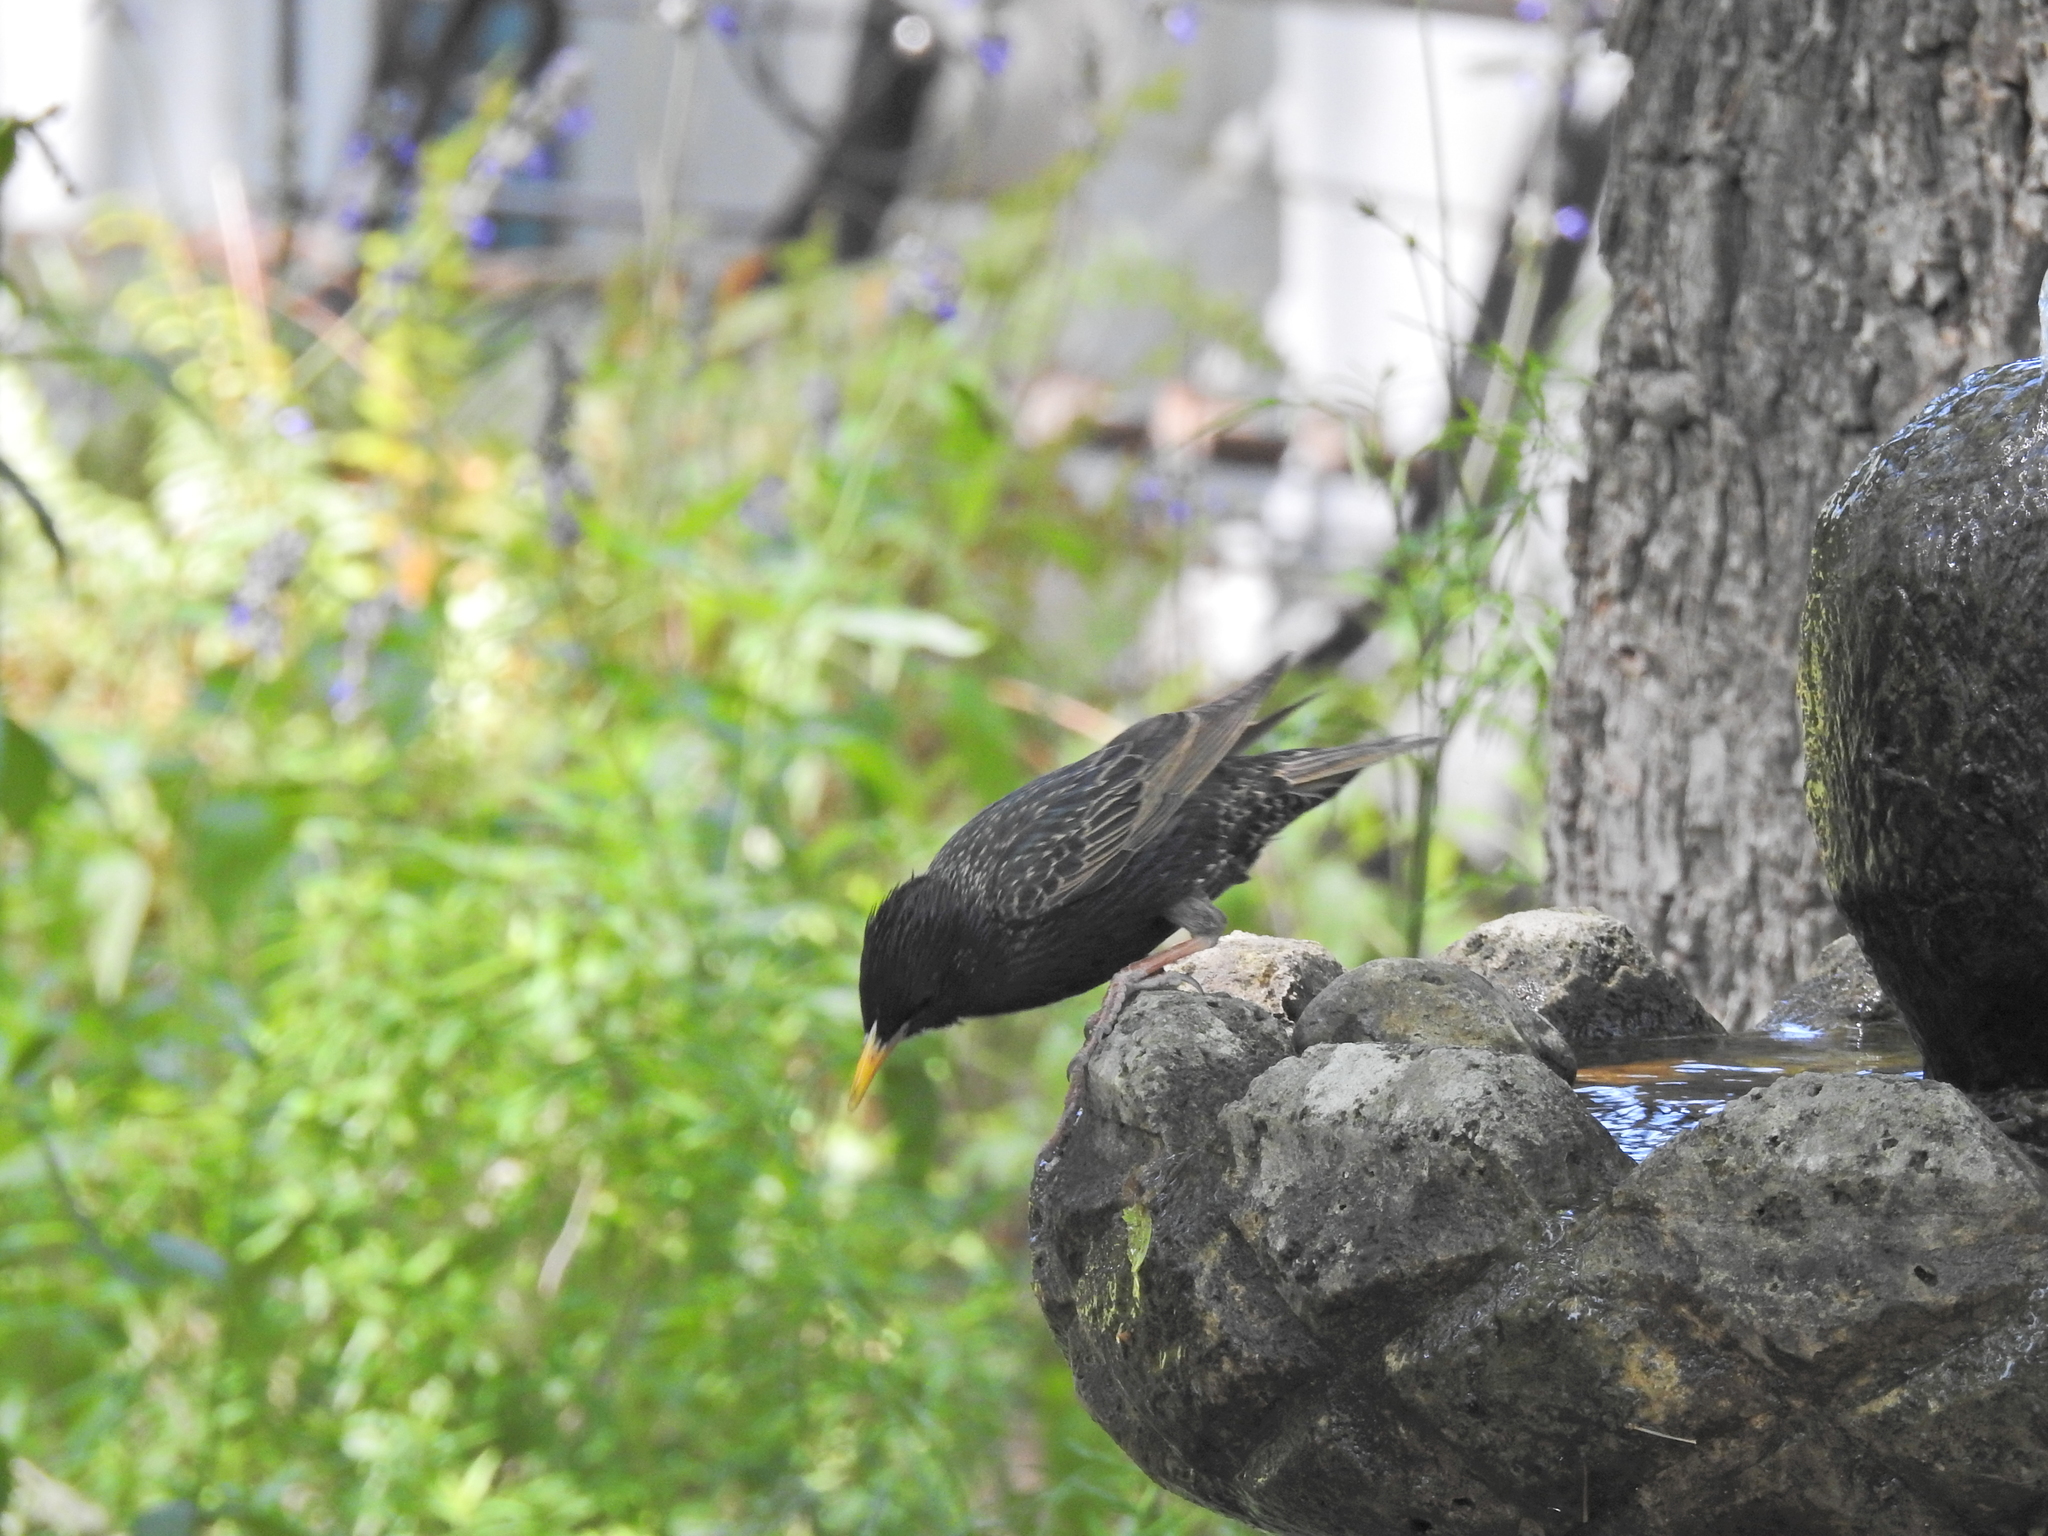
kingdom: Animalia
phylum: Chordata
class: Aves
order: Passeriformes
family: Sturnidae
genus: Sturnus
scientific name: Sturnus vulgaris
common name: Common starling
